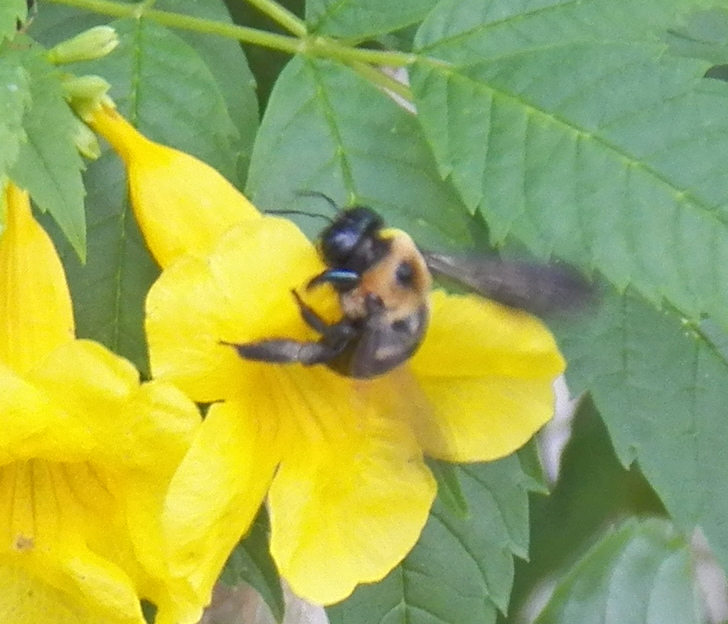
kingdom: Animalia
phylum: Arthropoda
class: Insecta
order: Hymenoptera
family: Apidae
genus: Xylocopa
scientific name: Xylocopa virginica
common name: Carpenter bee
